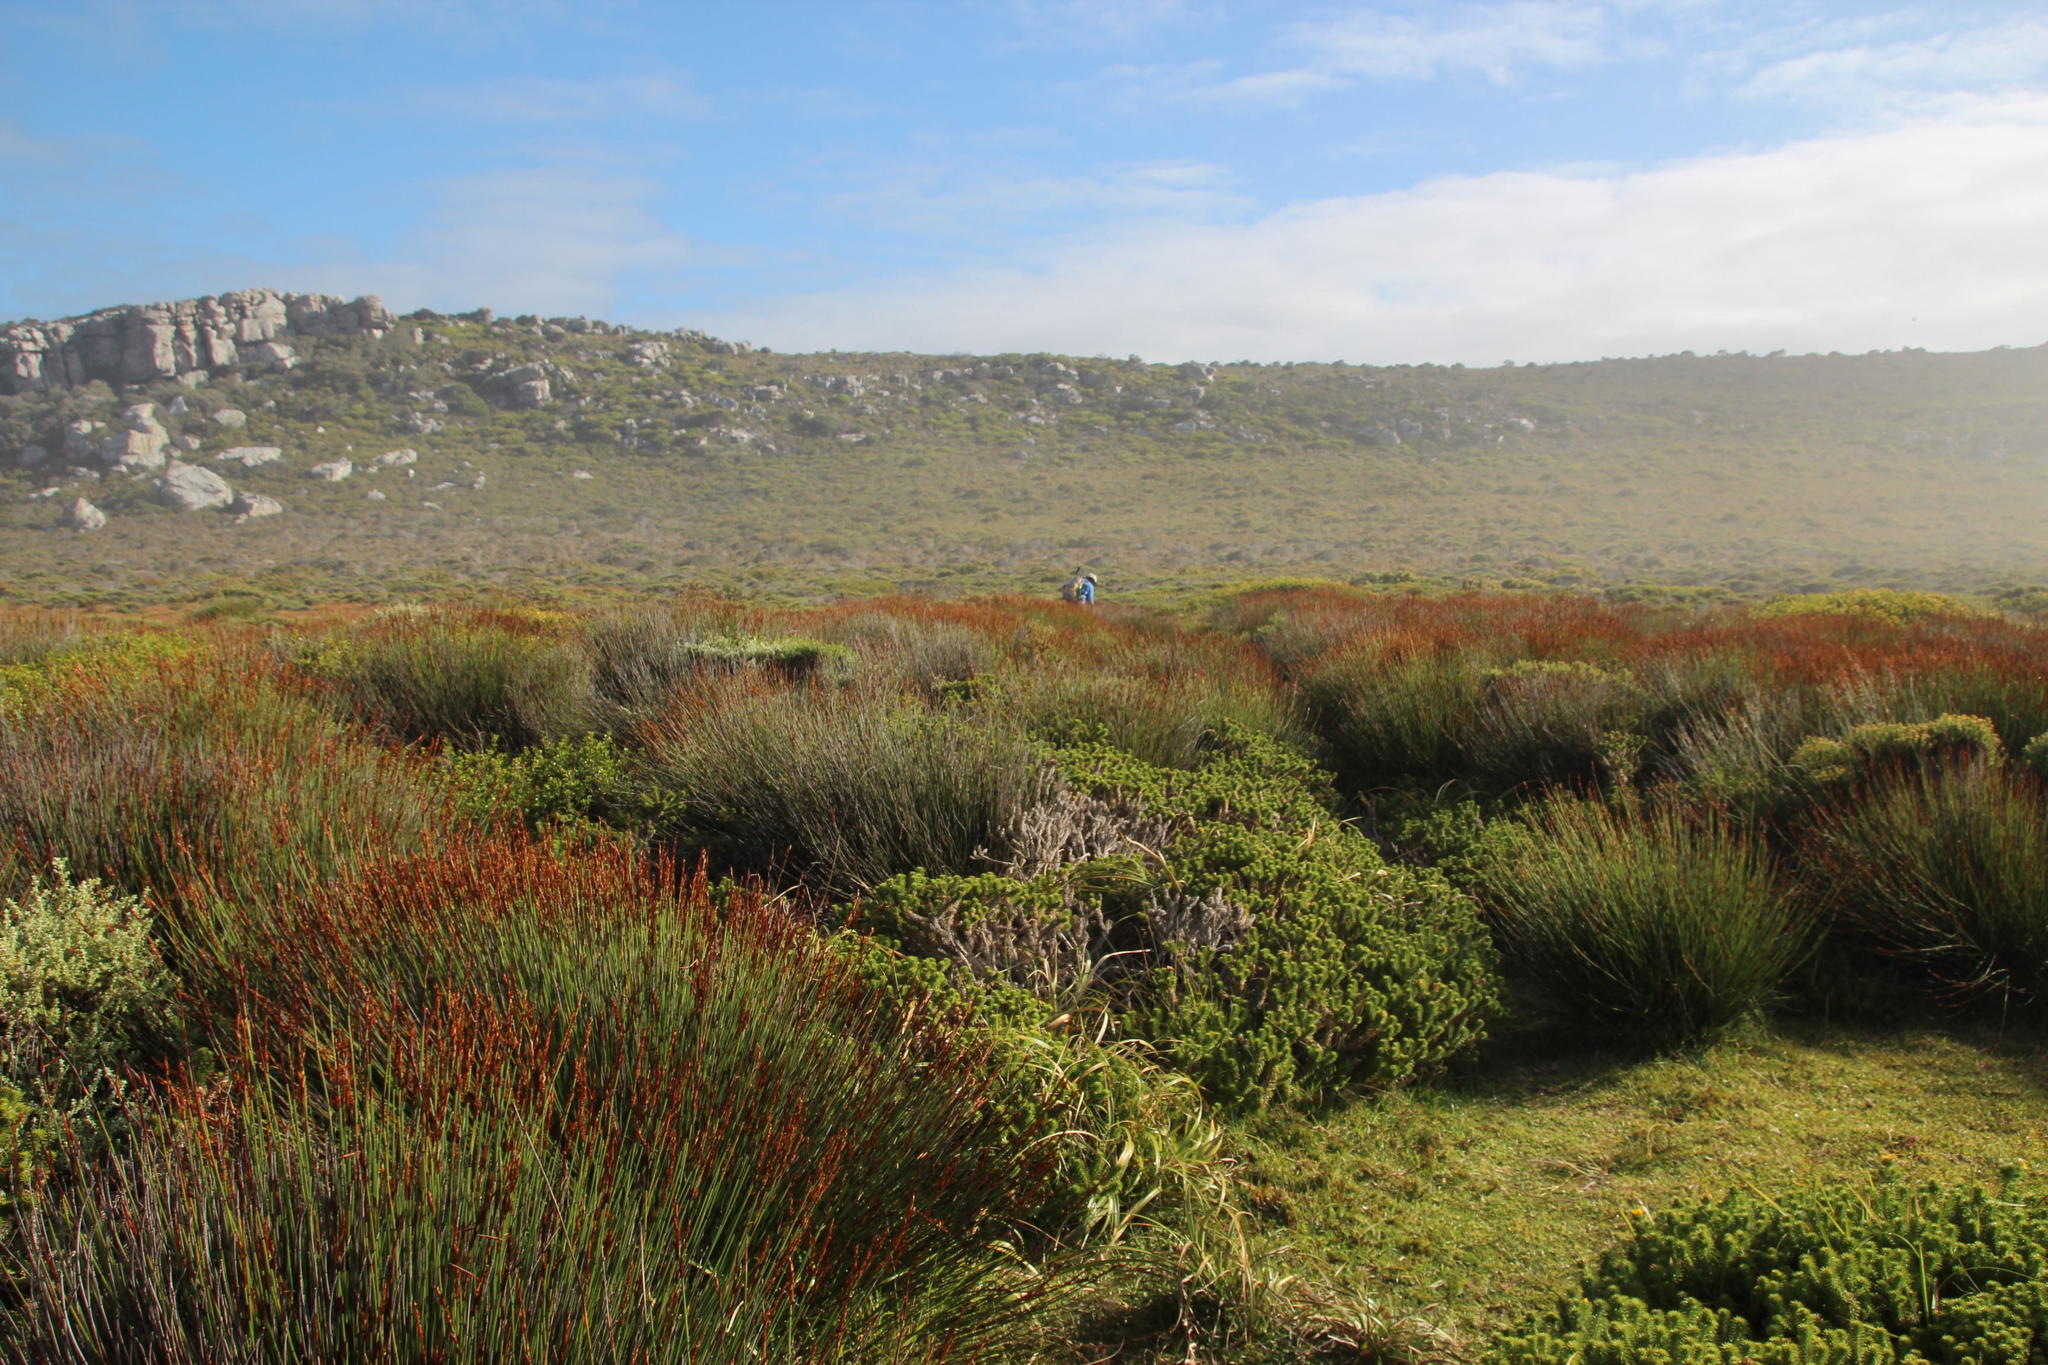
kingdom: Plantae
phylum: Tracheophyta
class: Liliopsida
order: Poales
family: Restionaceae
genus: Elegia
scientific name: Elegia nuda
